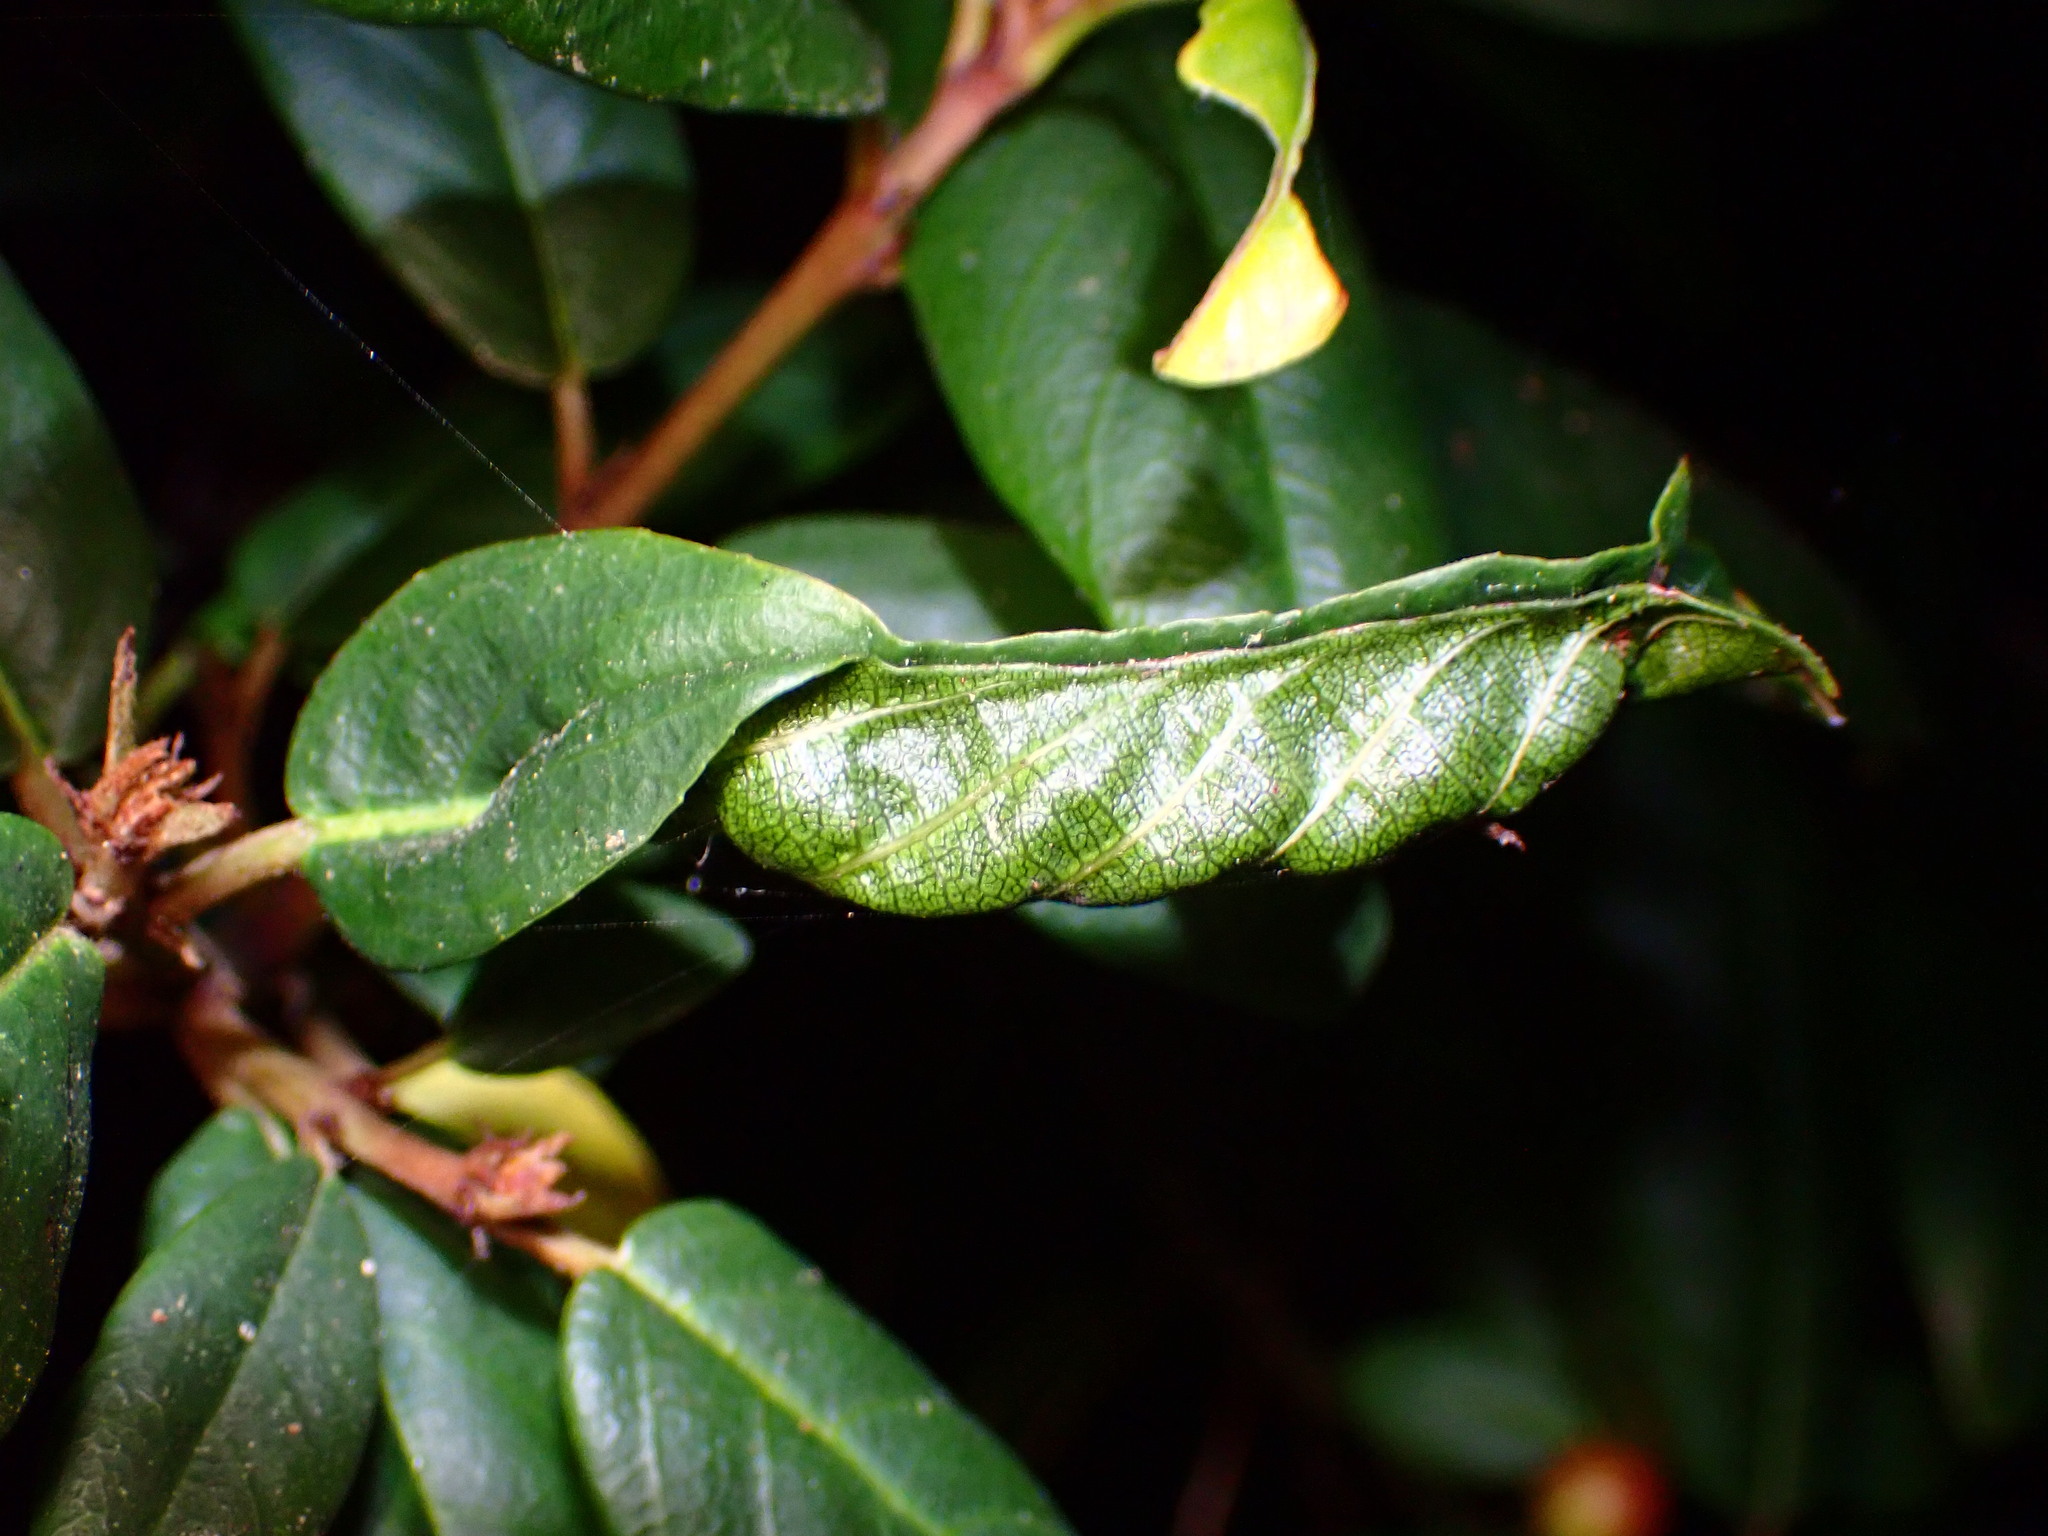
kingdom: Animalia
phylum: Arthropoda
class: Insecta
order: Lepidoptera
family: Cosmopterigidae
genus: Sorhagenia
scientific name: Sorhagenia nimbosus
